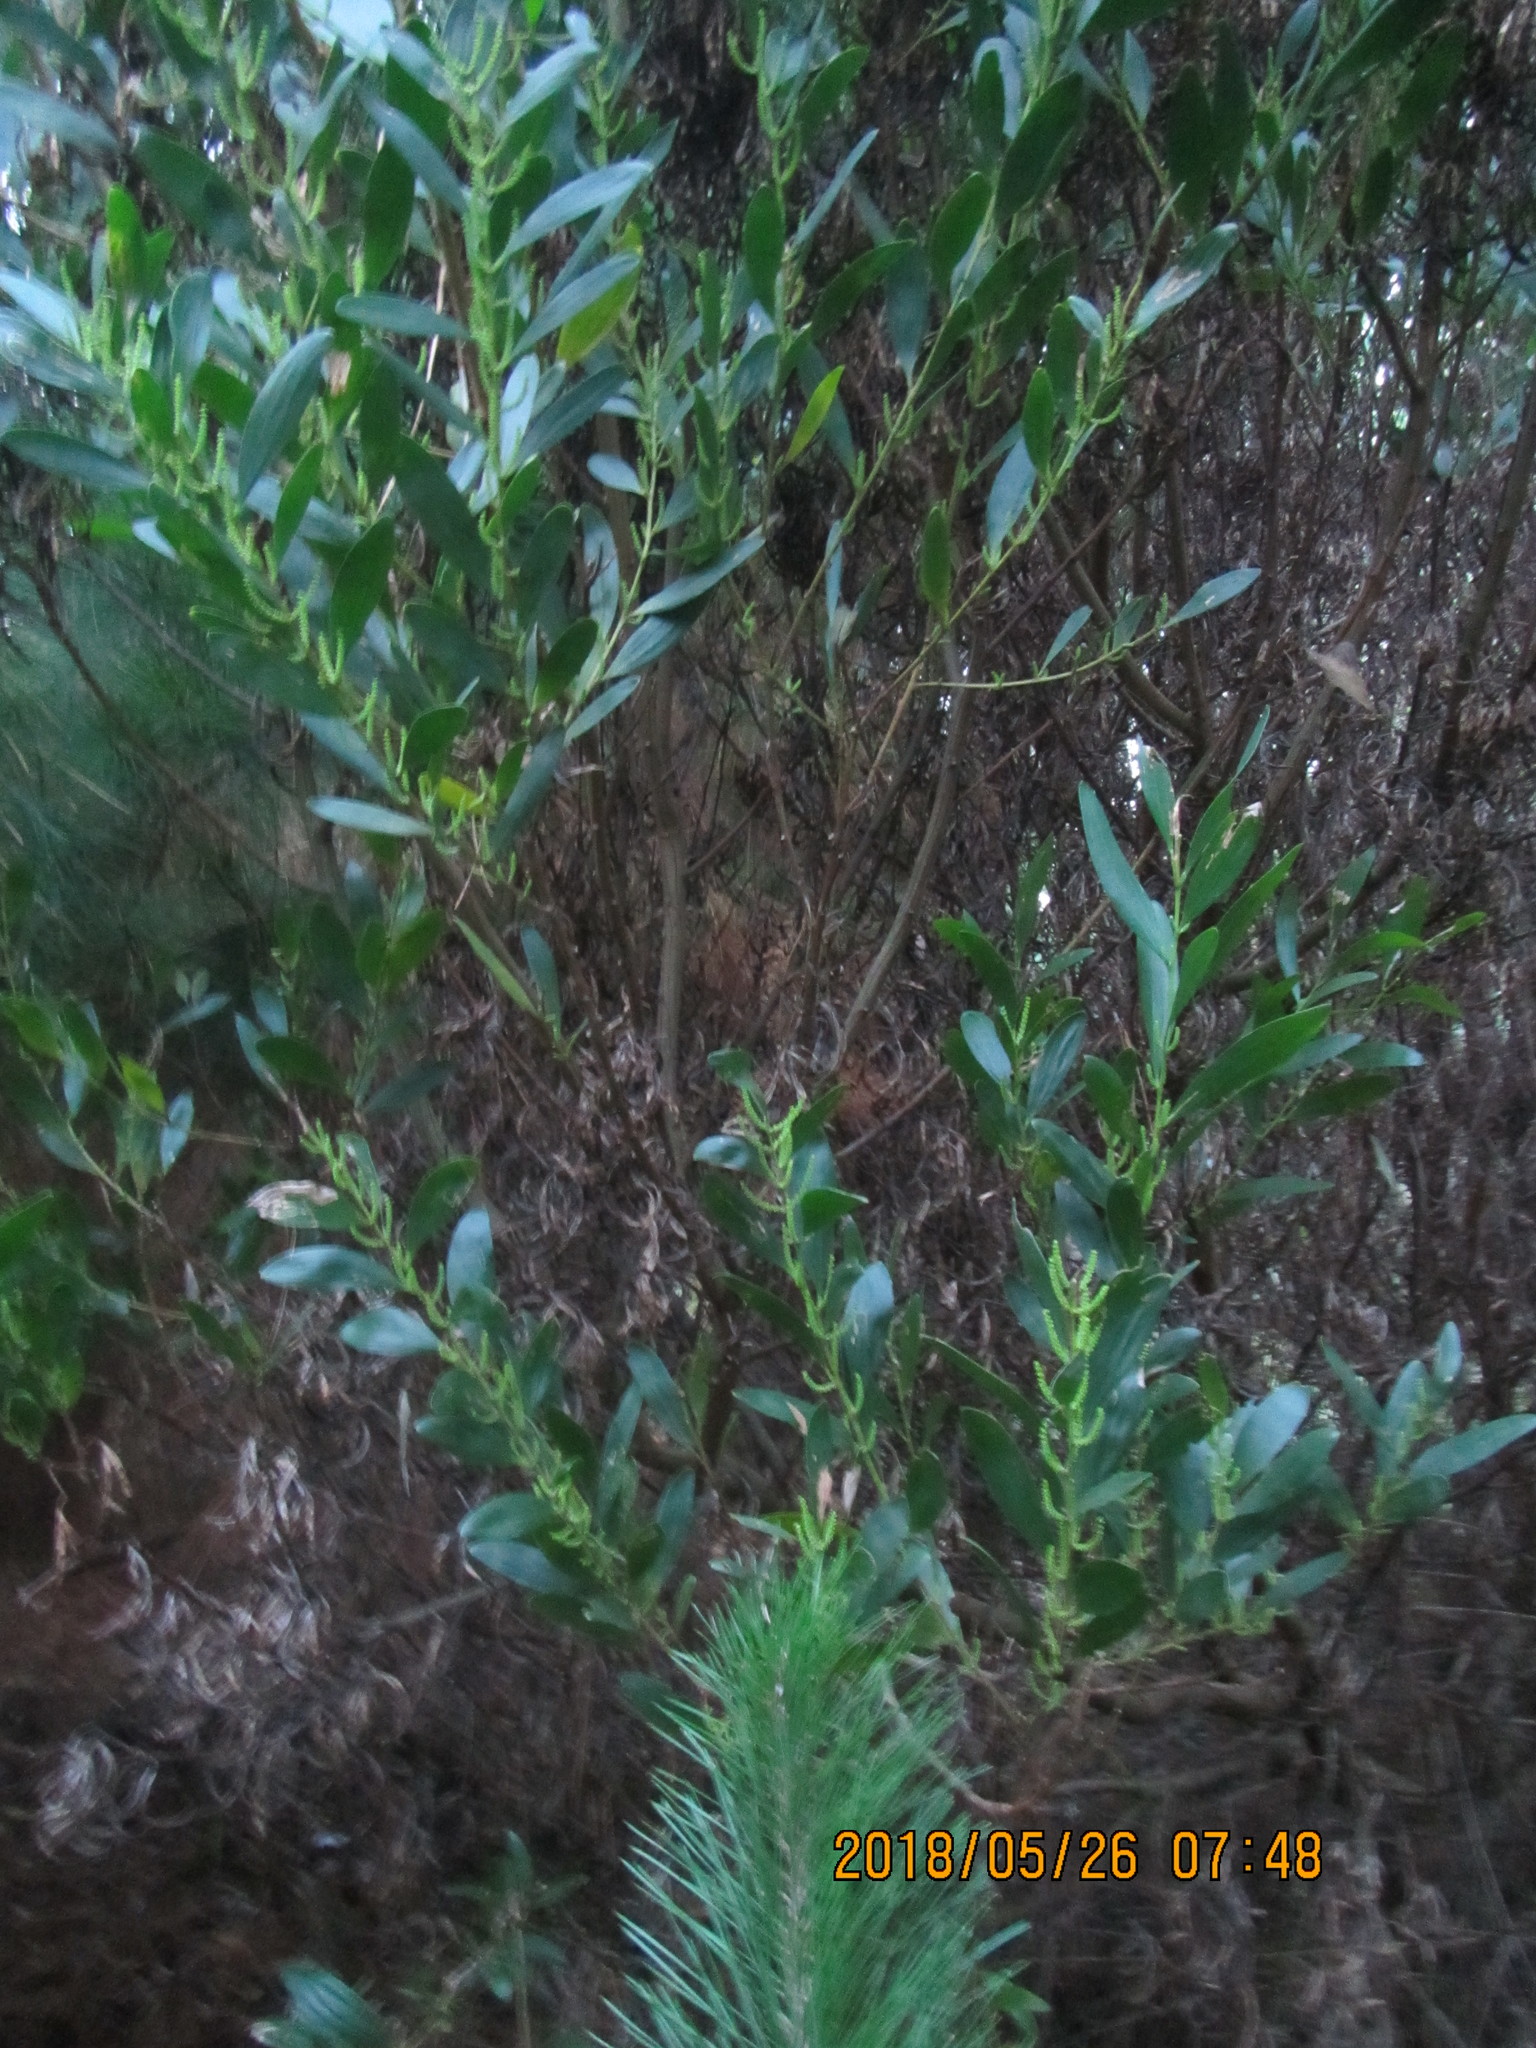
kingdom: Plantae
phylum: Tracheophyta
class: Magnoliopsida
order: Fabales
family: Fabaceae
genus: Acacia
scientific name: Acacia longifolia
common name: Sydney golden wattle
